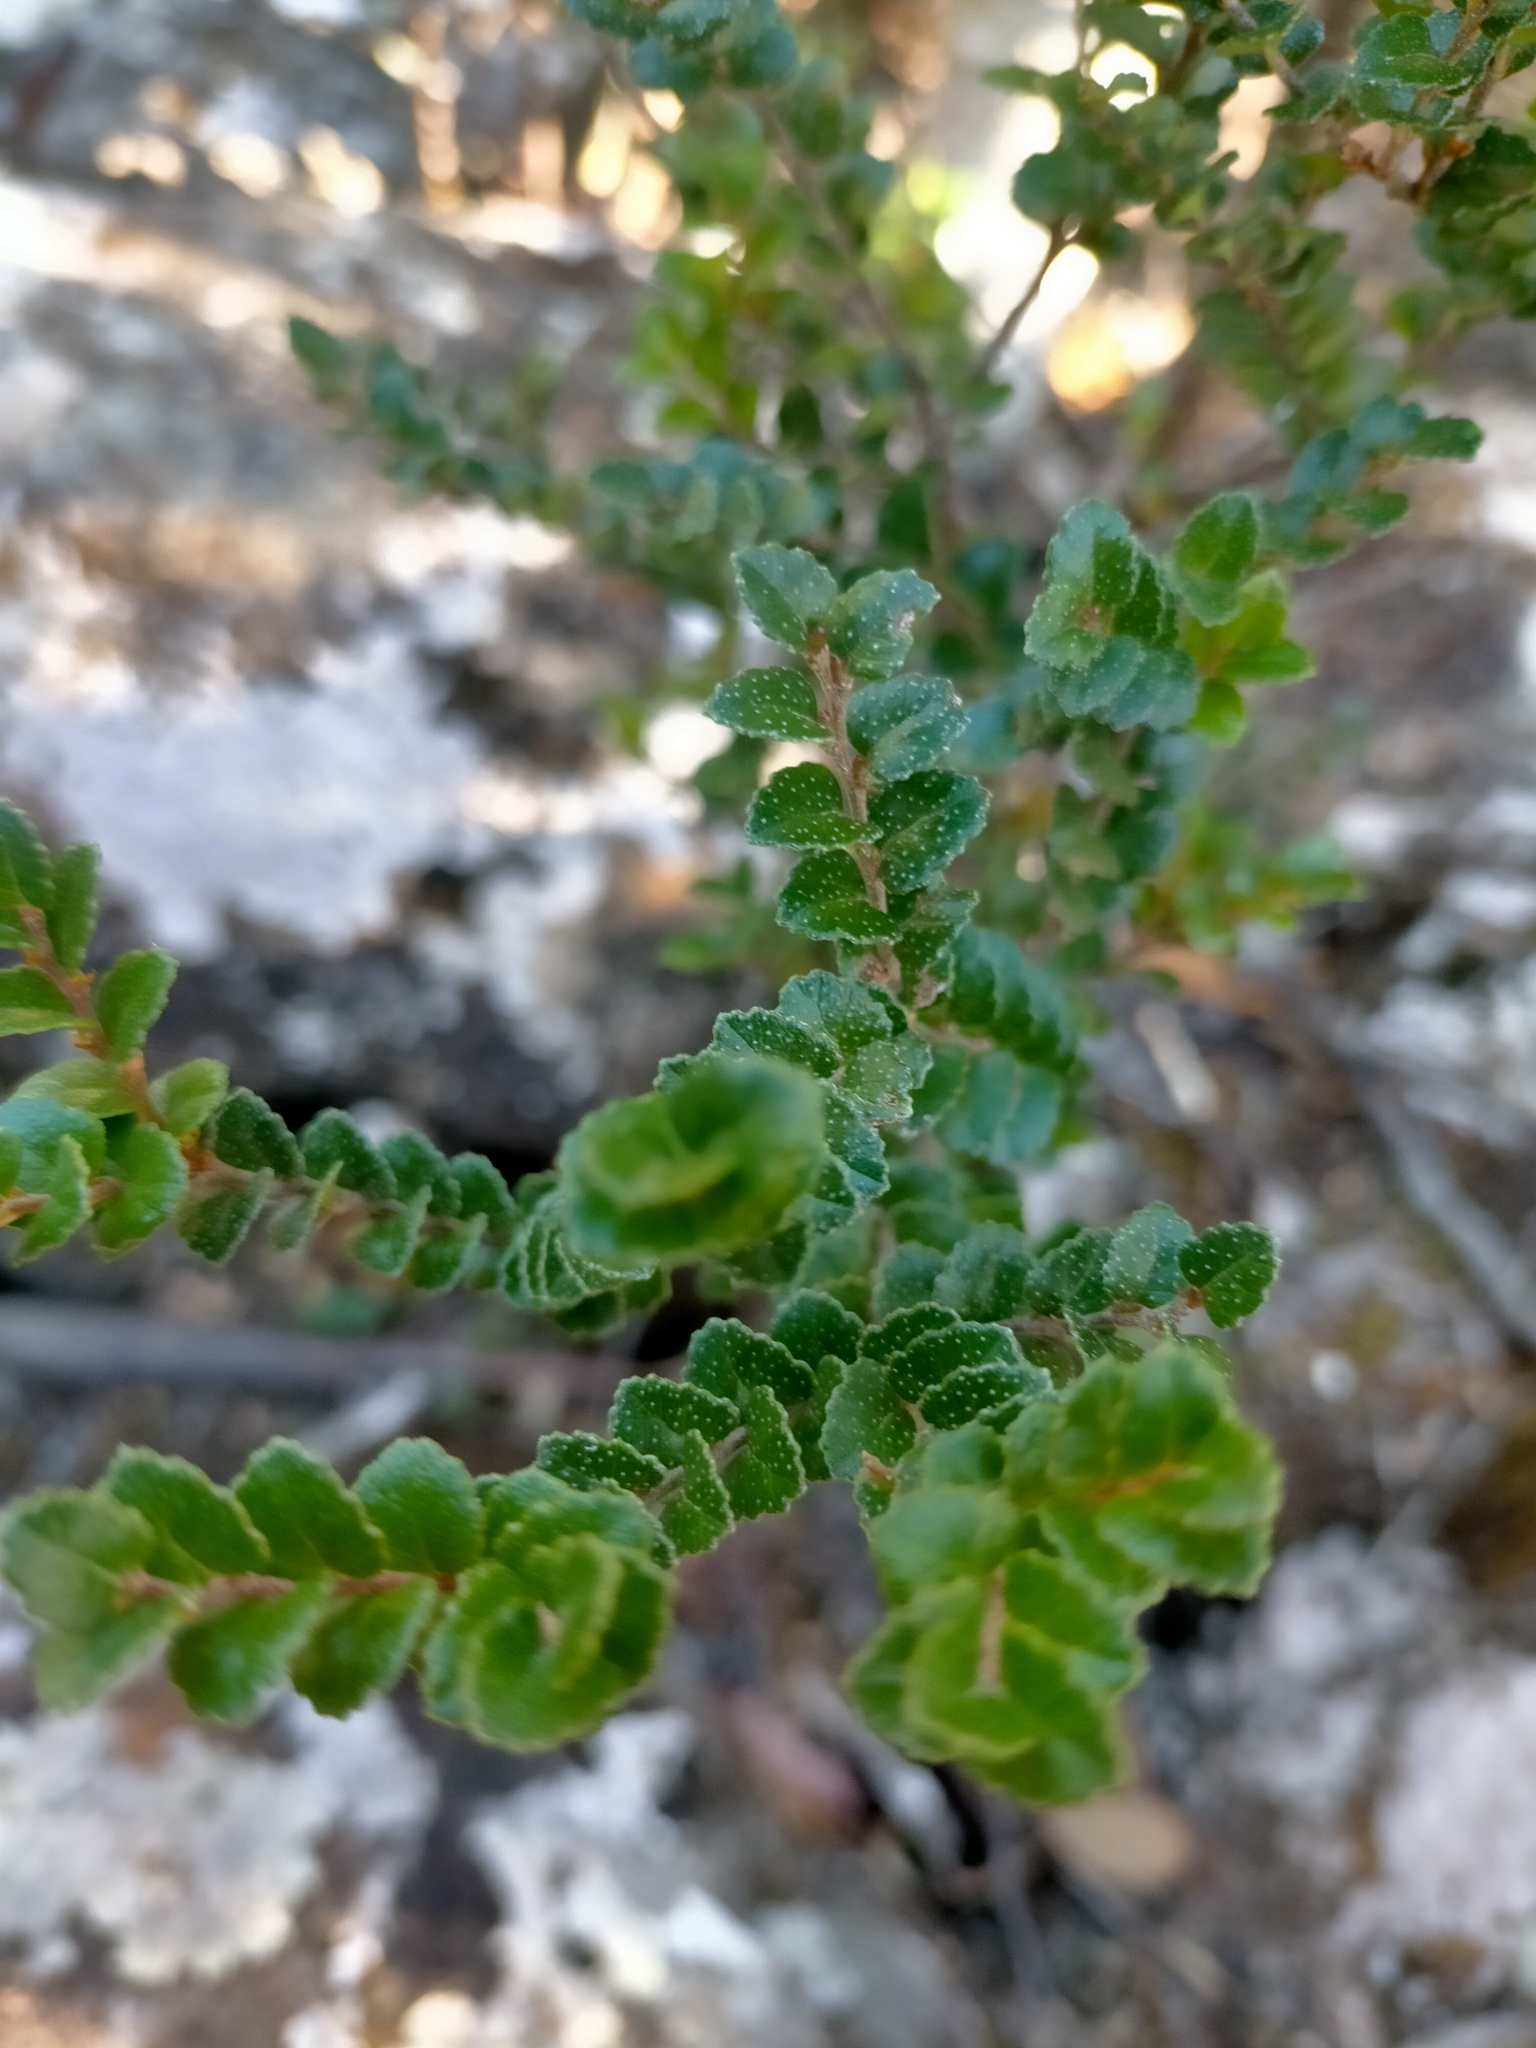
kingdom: Plantae
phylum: Tracheophyta
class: Magnoliopsida
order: Fagales
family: Nothofagaceae
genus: Nothofagus
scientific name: Nothofagus cunninghamii
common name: Myrtle beech
